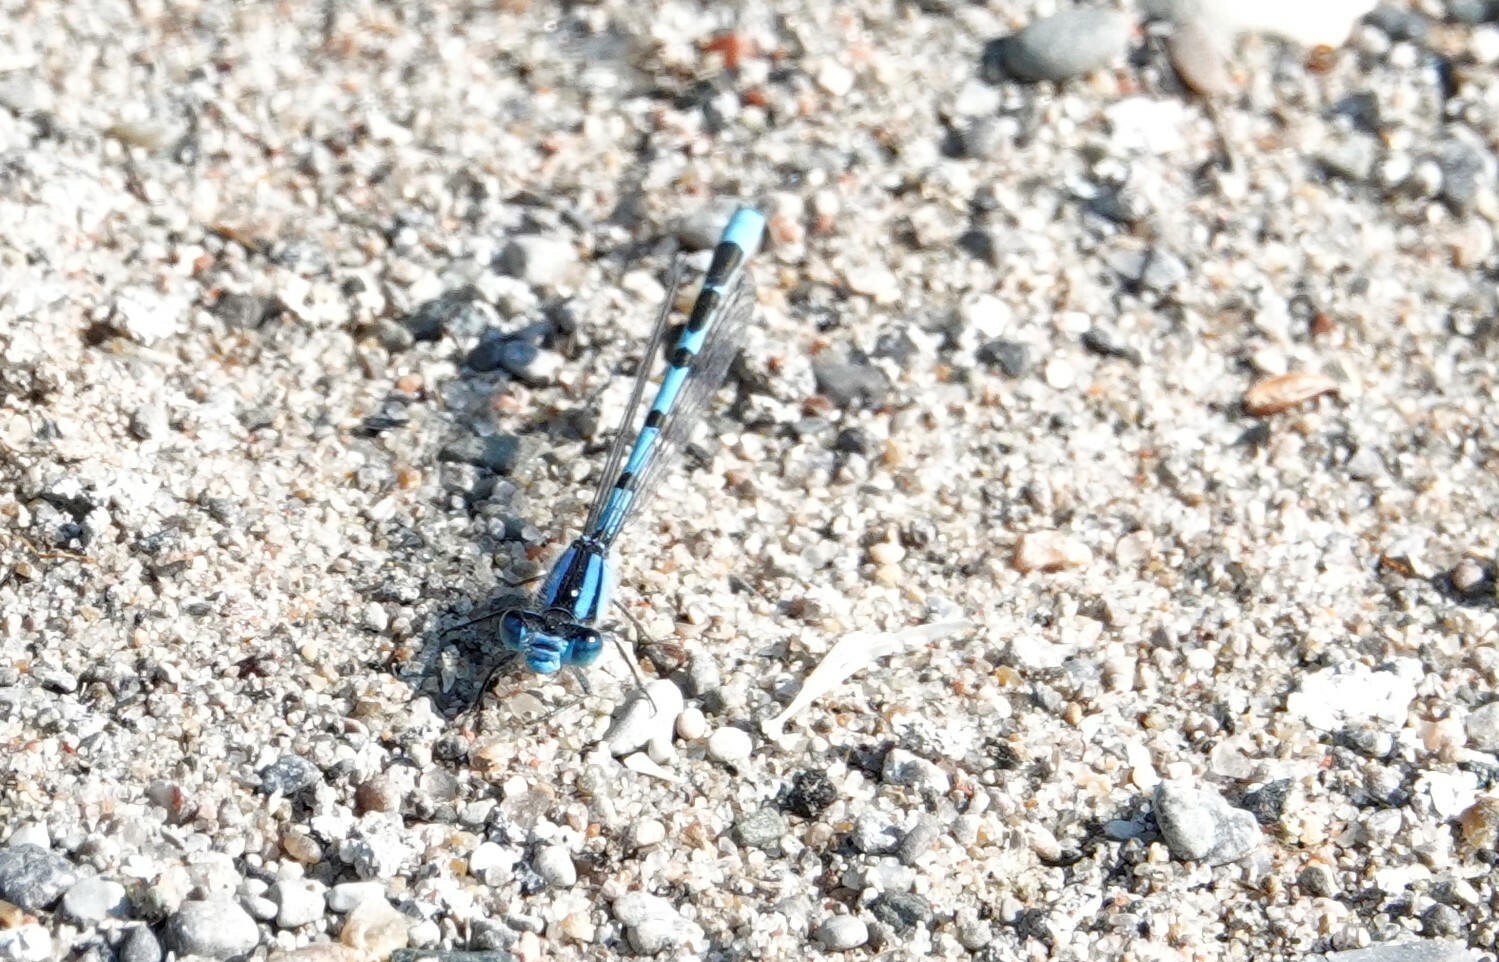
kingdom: Animalia
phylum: Arthropoda
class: Insecta
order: Odonata
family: Coenagrionidae
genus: Enallagma
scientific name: Enallagma civile
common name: Damselfly
